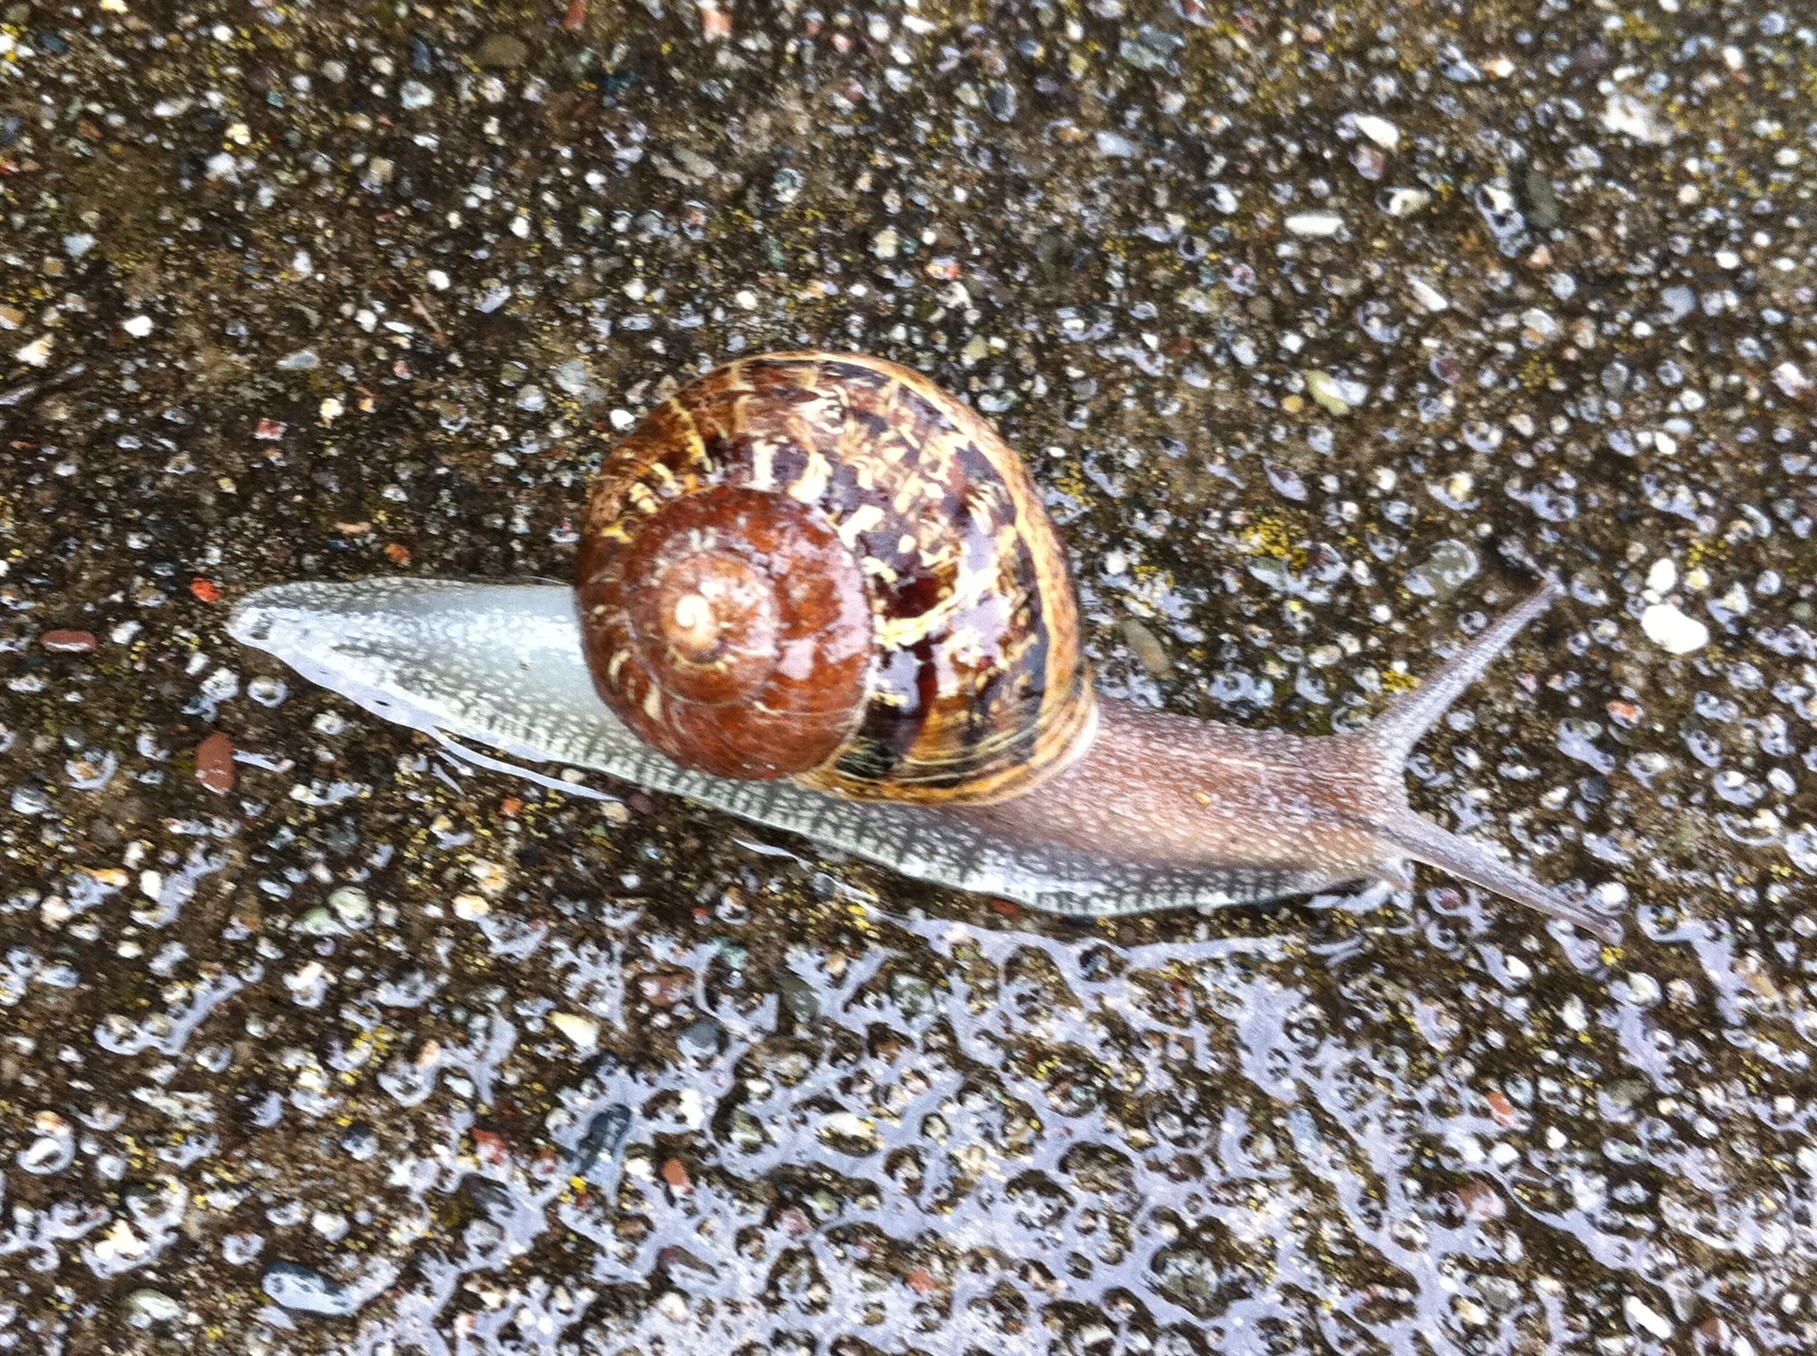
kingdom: Animalia
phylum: Mollusca
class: Gastropoda
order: Stylommatophora
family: Helicidae
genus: Cornu
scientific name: Cornu aspersum
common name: Brown garden snail
